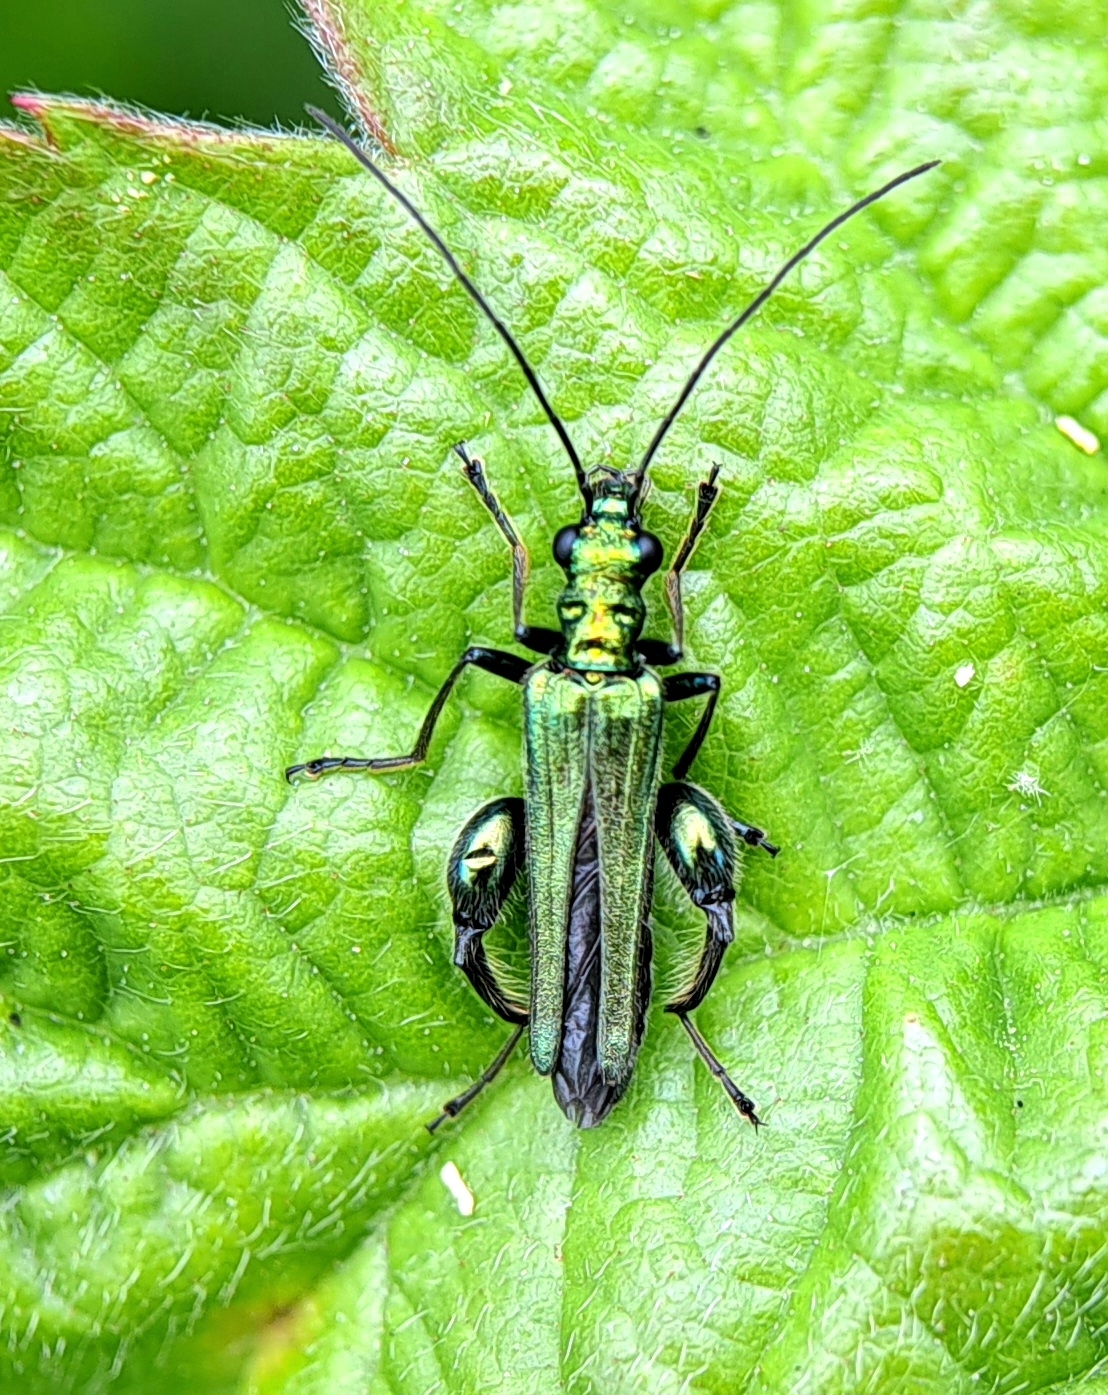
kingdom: Animalia
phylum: Arthropoda
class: Insecta
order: Coleoptera
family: Oedemeridae
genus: Oedemera
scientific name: Oedemera nobilis
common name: Swollen-thighed beetle
